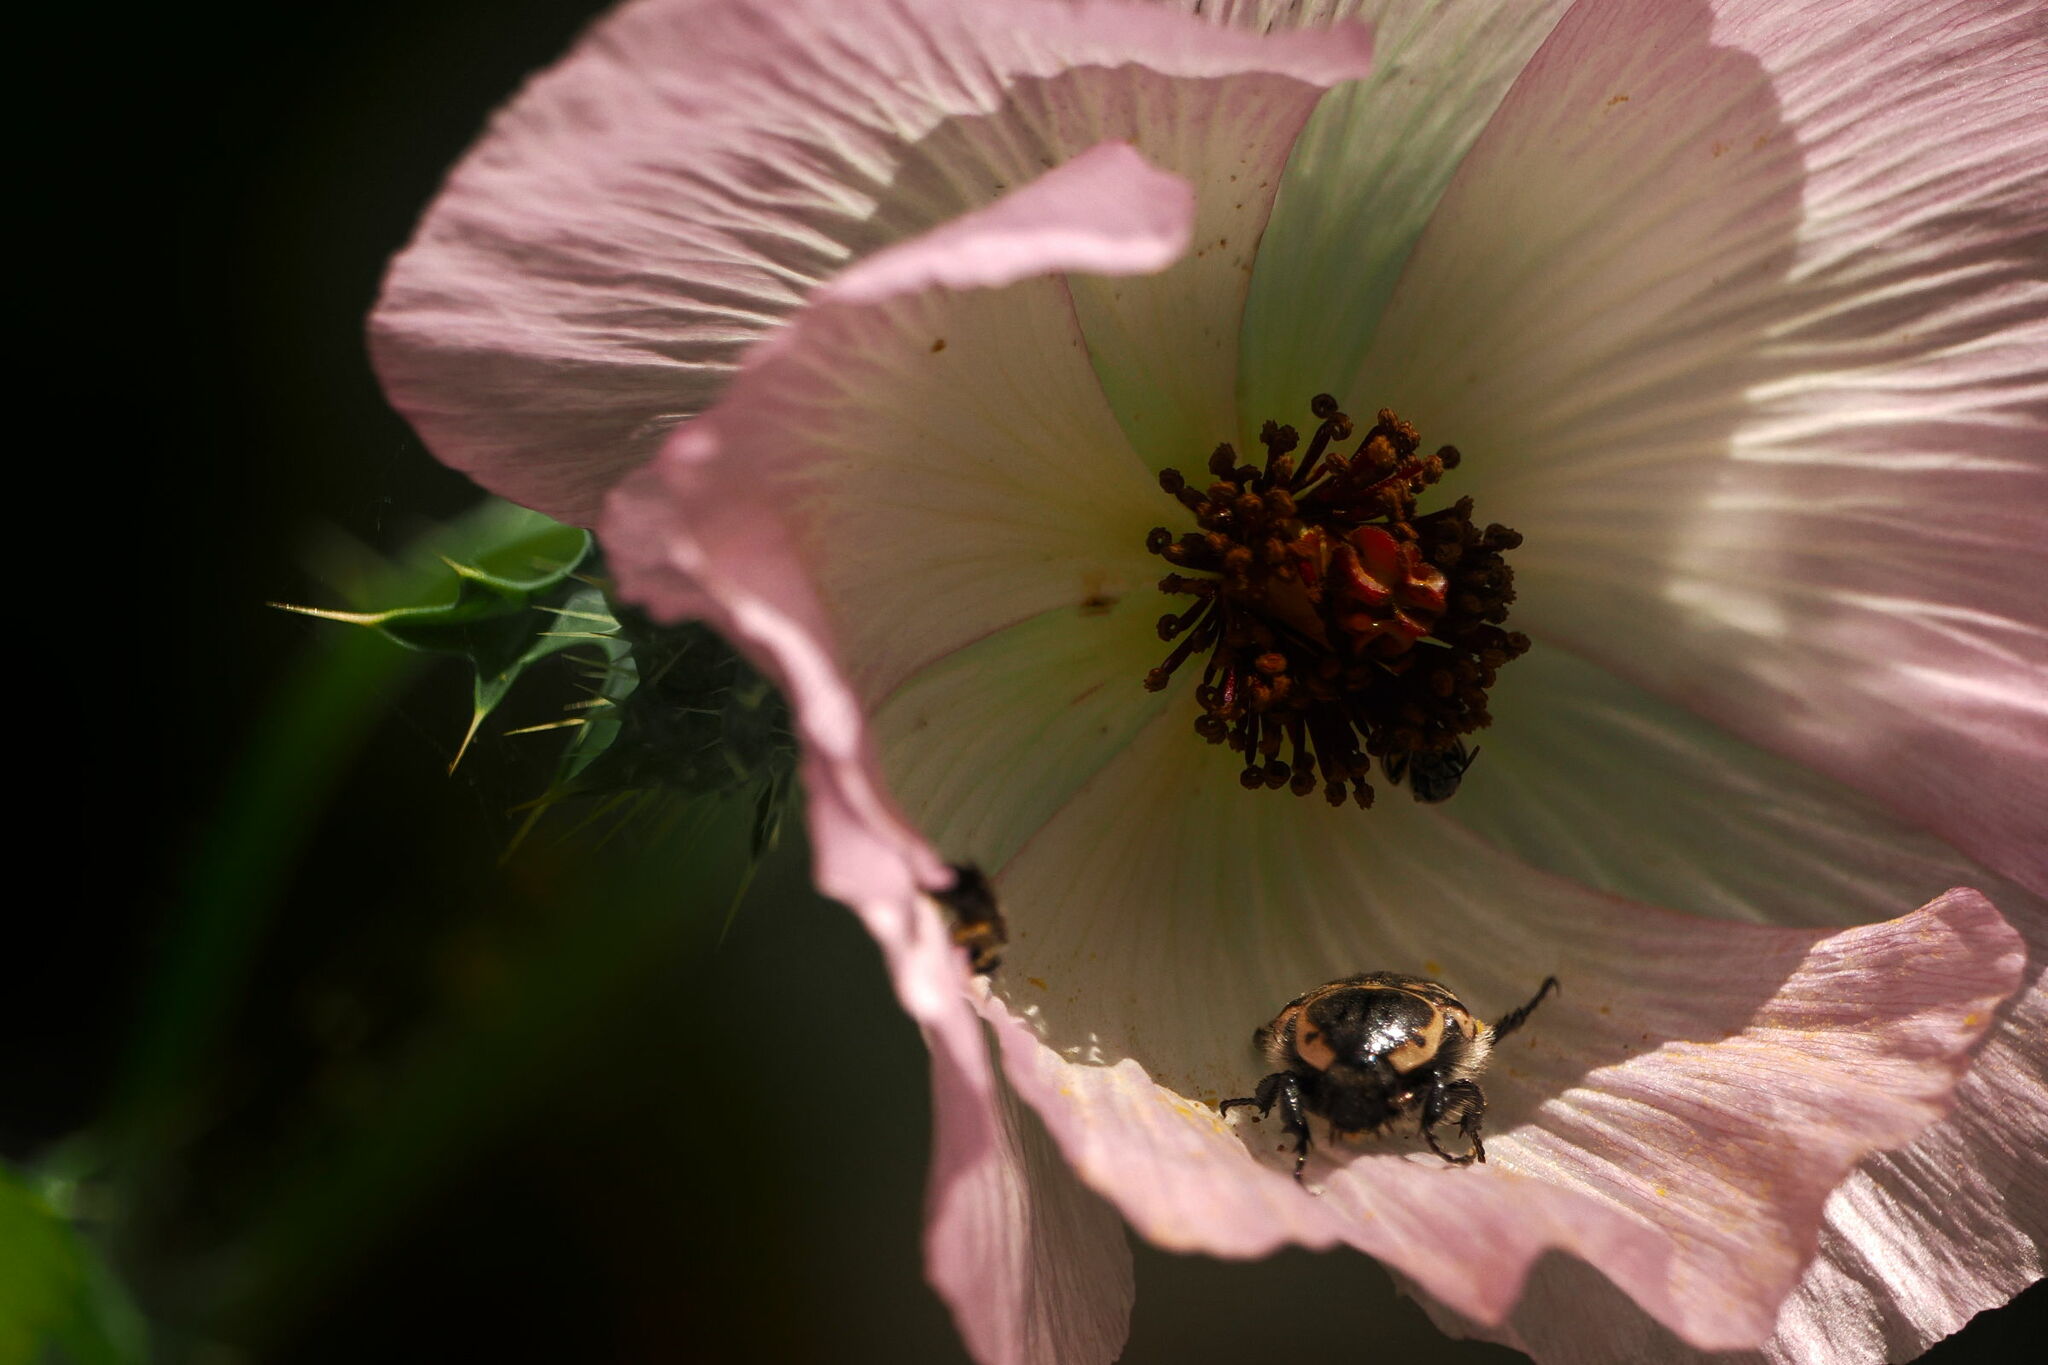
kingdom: Animalia
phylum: Arthropoda
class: Insecta
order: Coleoptera
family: Scarabaeidae
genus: Euphoria
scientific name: Euphoria kernii
